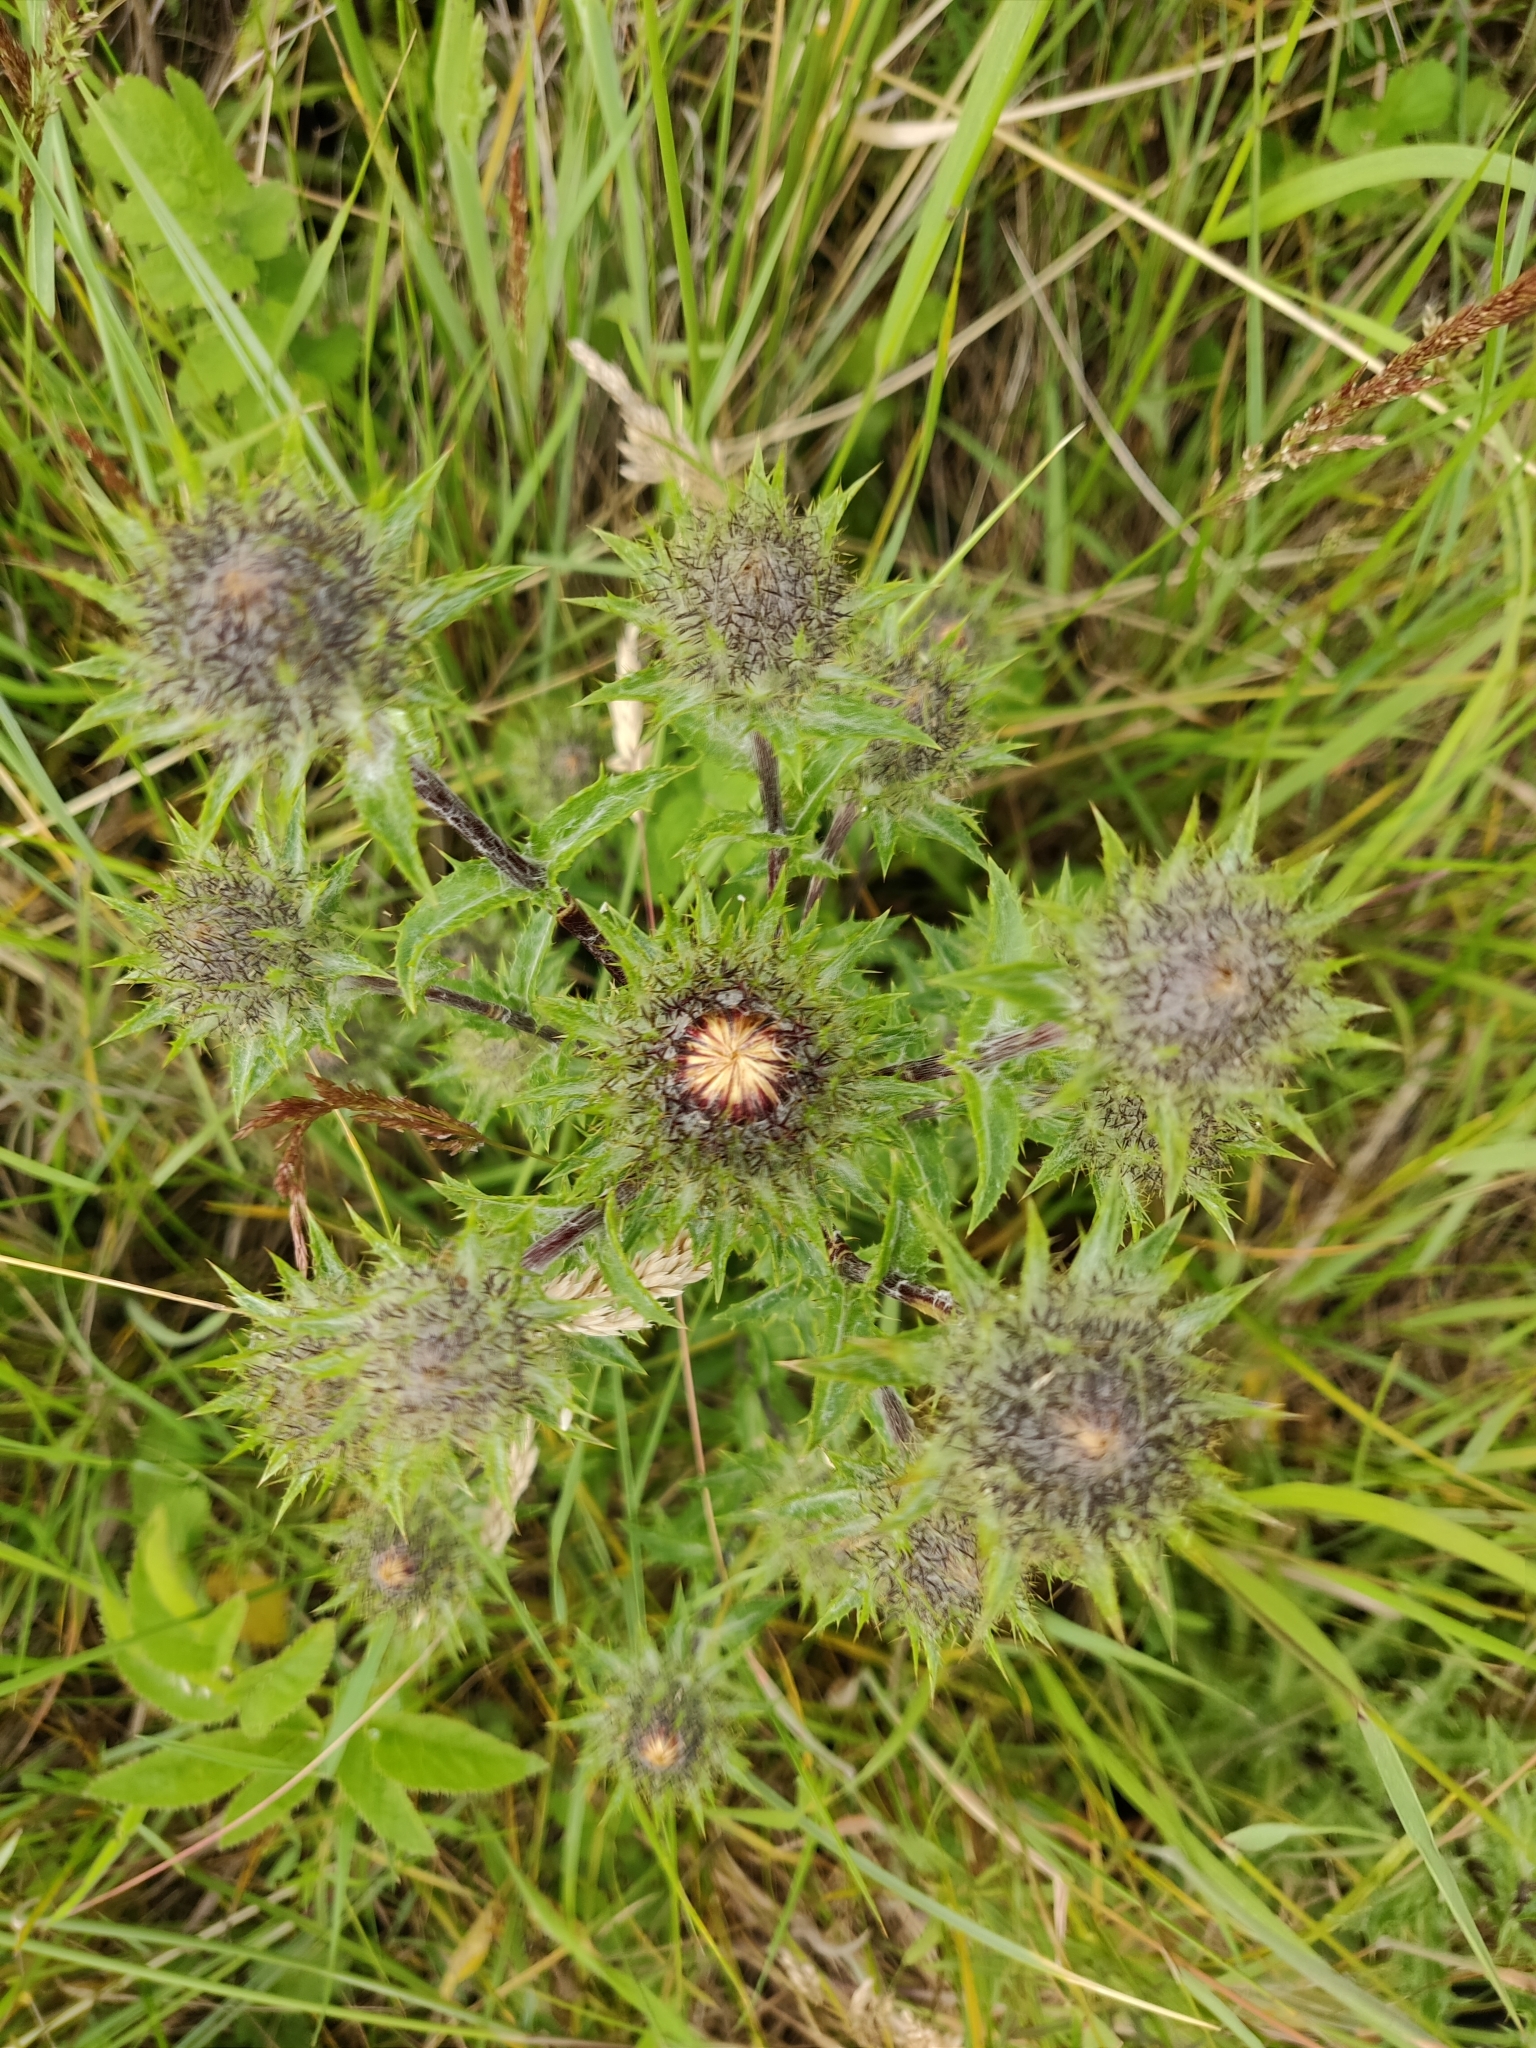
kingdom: Plantae
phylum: Tracheophyta
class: Magnoliopsida
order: Asterales
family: Asteraceae
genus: Carlina
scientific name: Carlina vulgaris
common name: Carline thistle
